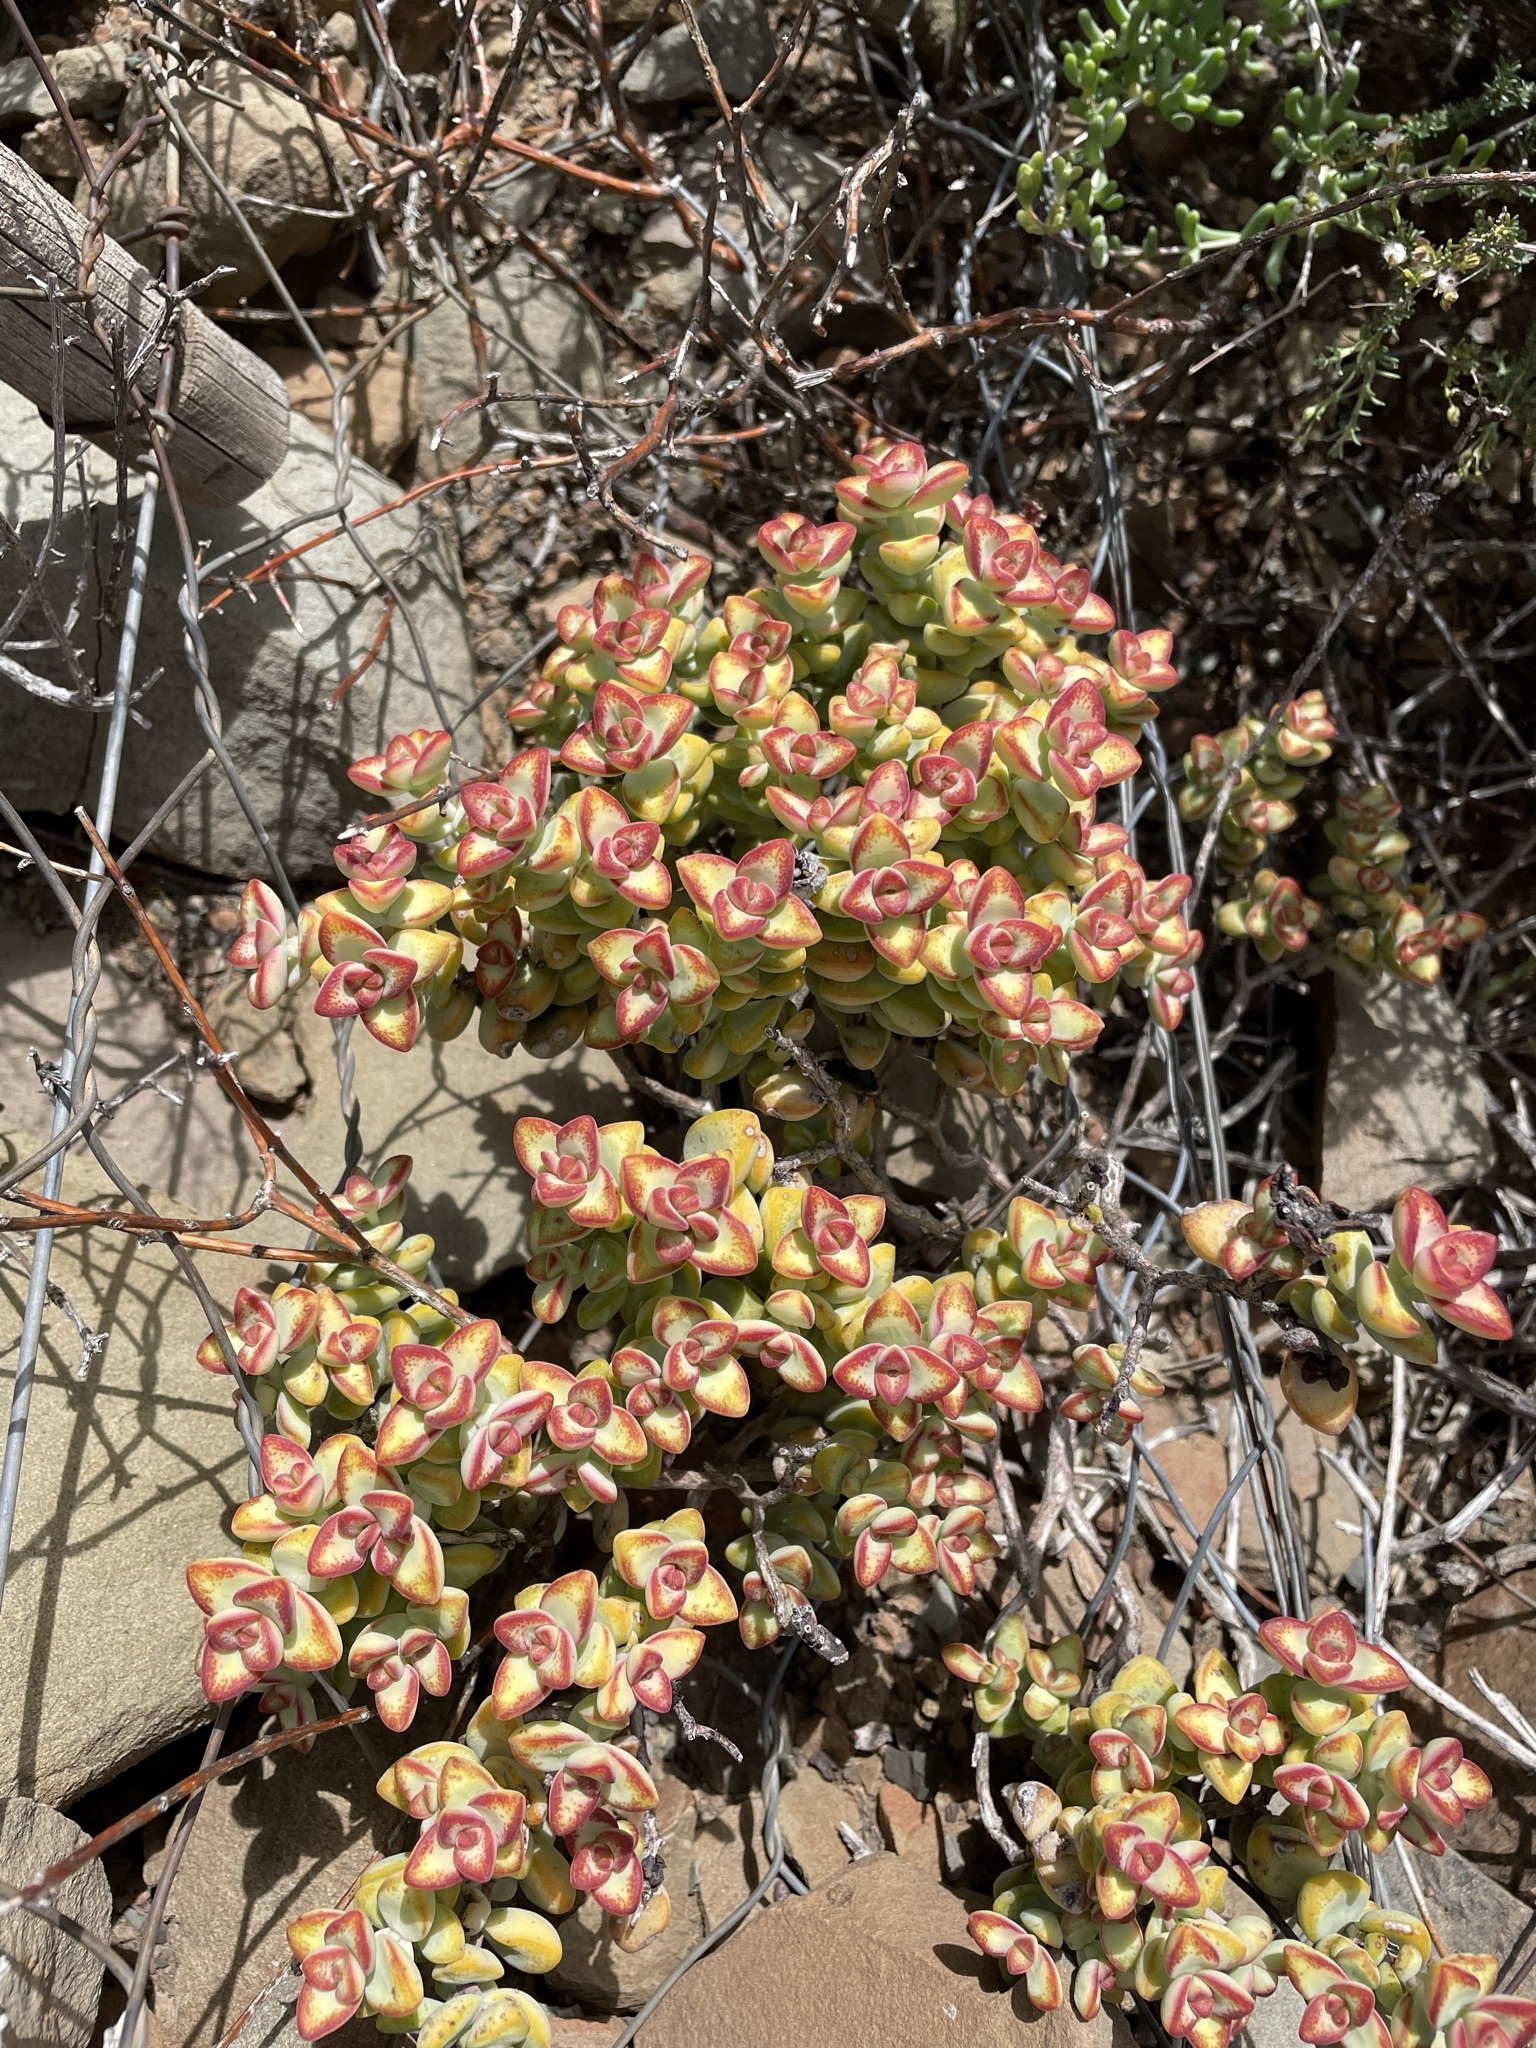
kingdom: Plantae
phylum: Tracheophyta
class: Magnoliopsida
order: Saxifragales
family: Crassulaceae
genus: Crassula
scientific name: Crassula rupestris
